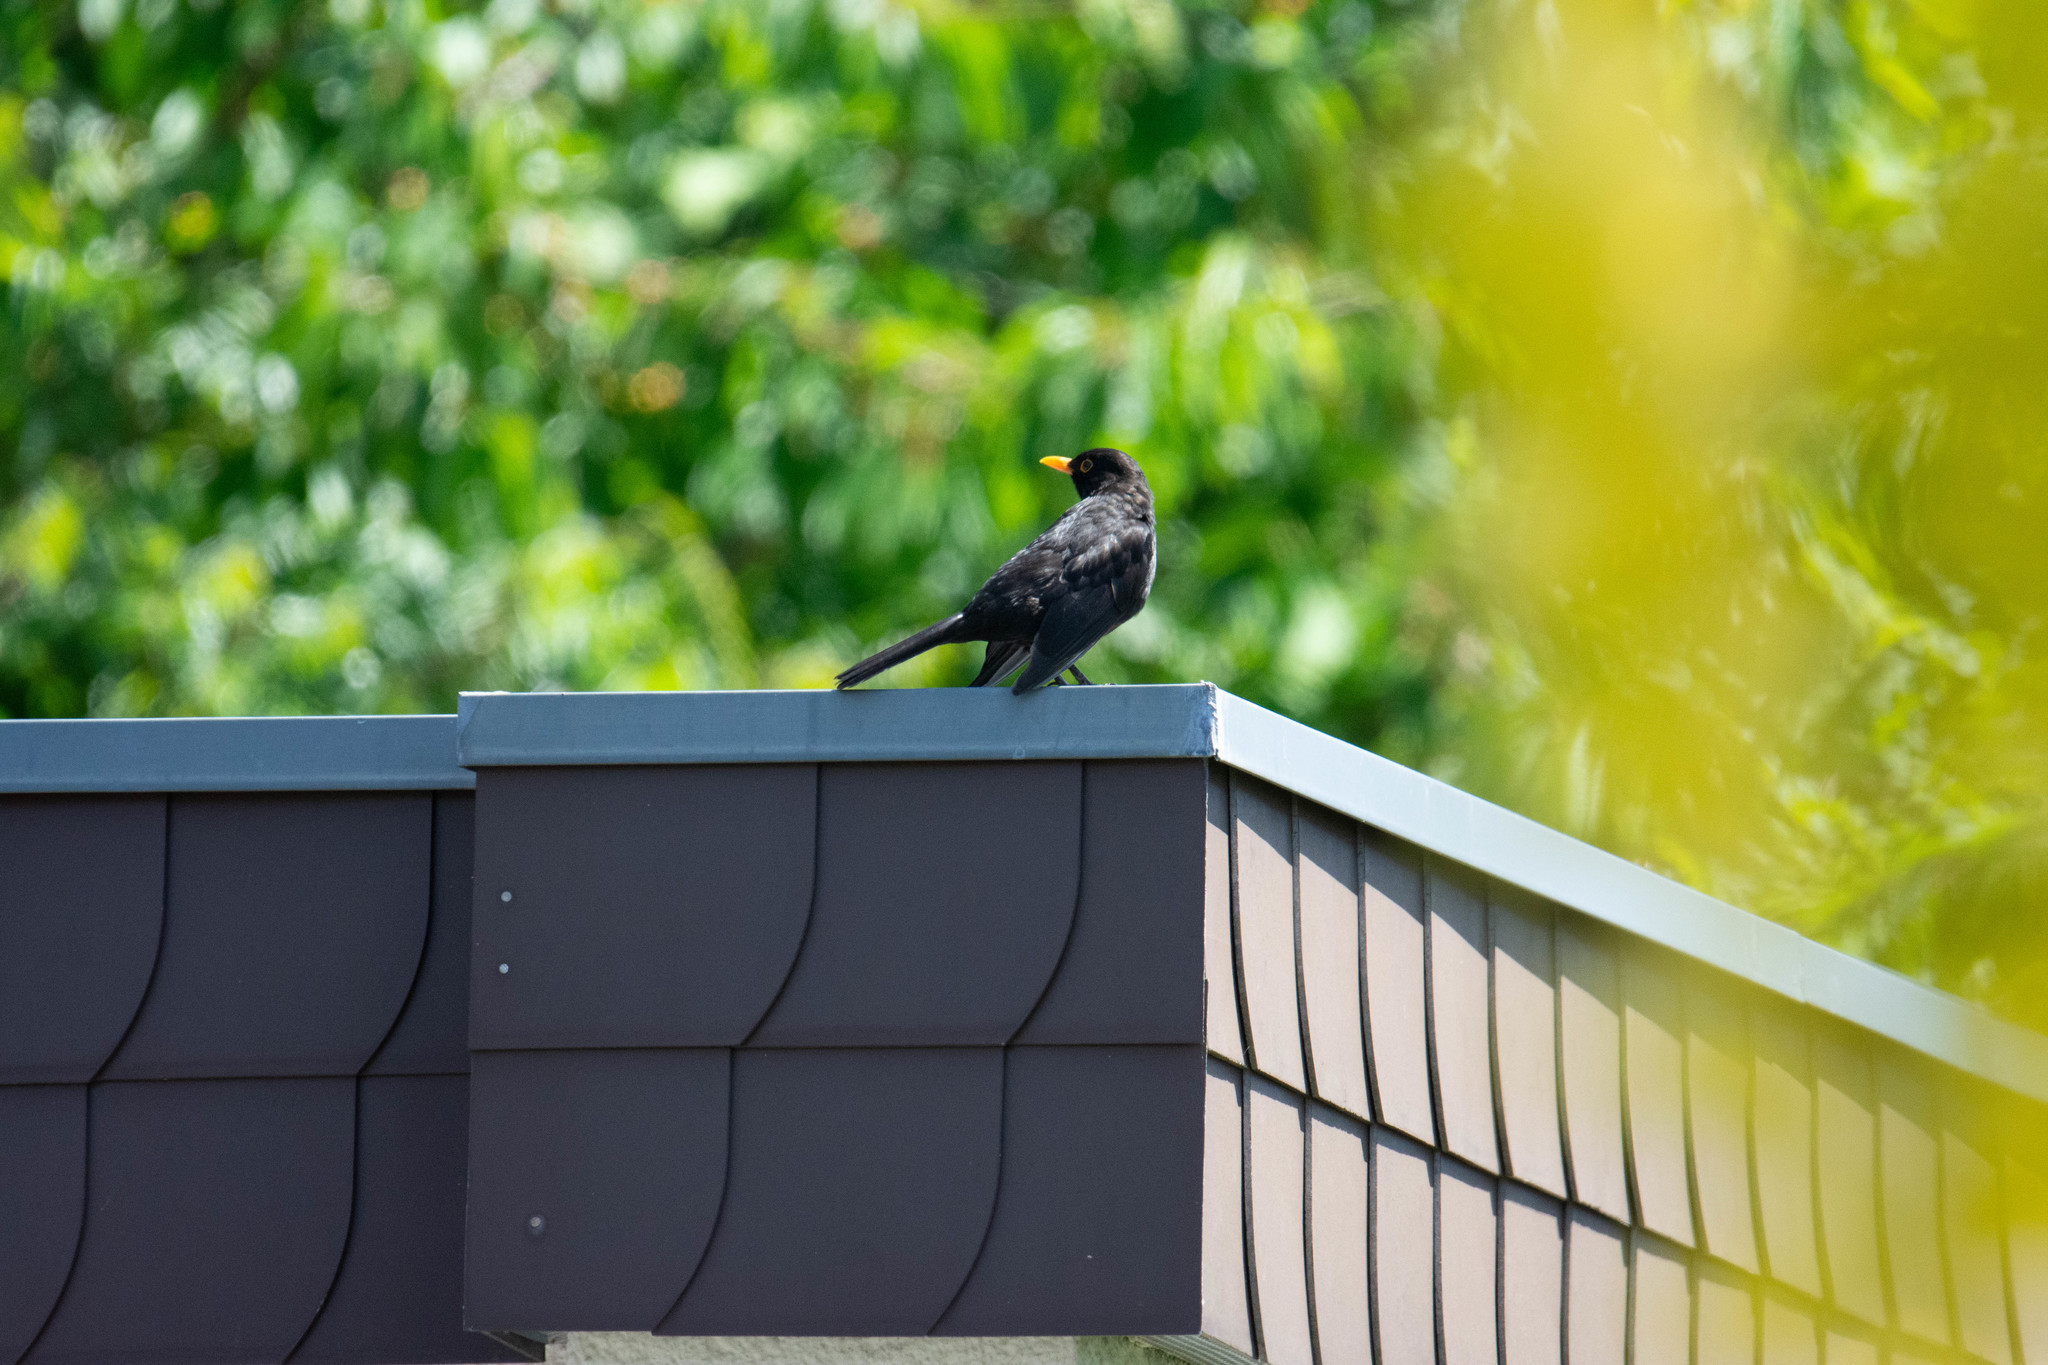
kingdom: Animalia
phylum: Chordata
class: Aves
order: Passeriformes
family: Turdidae
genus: Turdus
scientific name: Turdus merula
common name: Common blackbird
